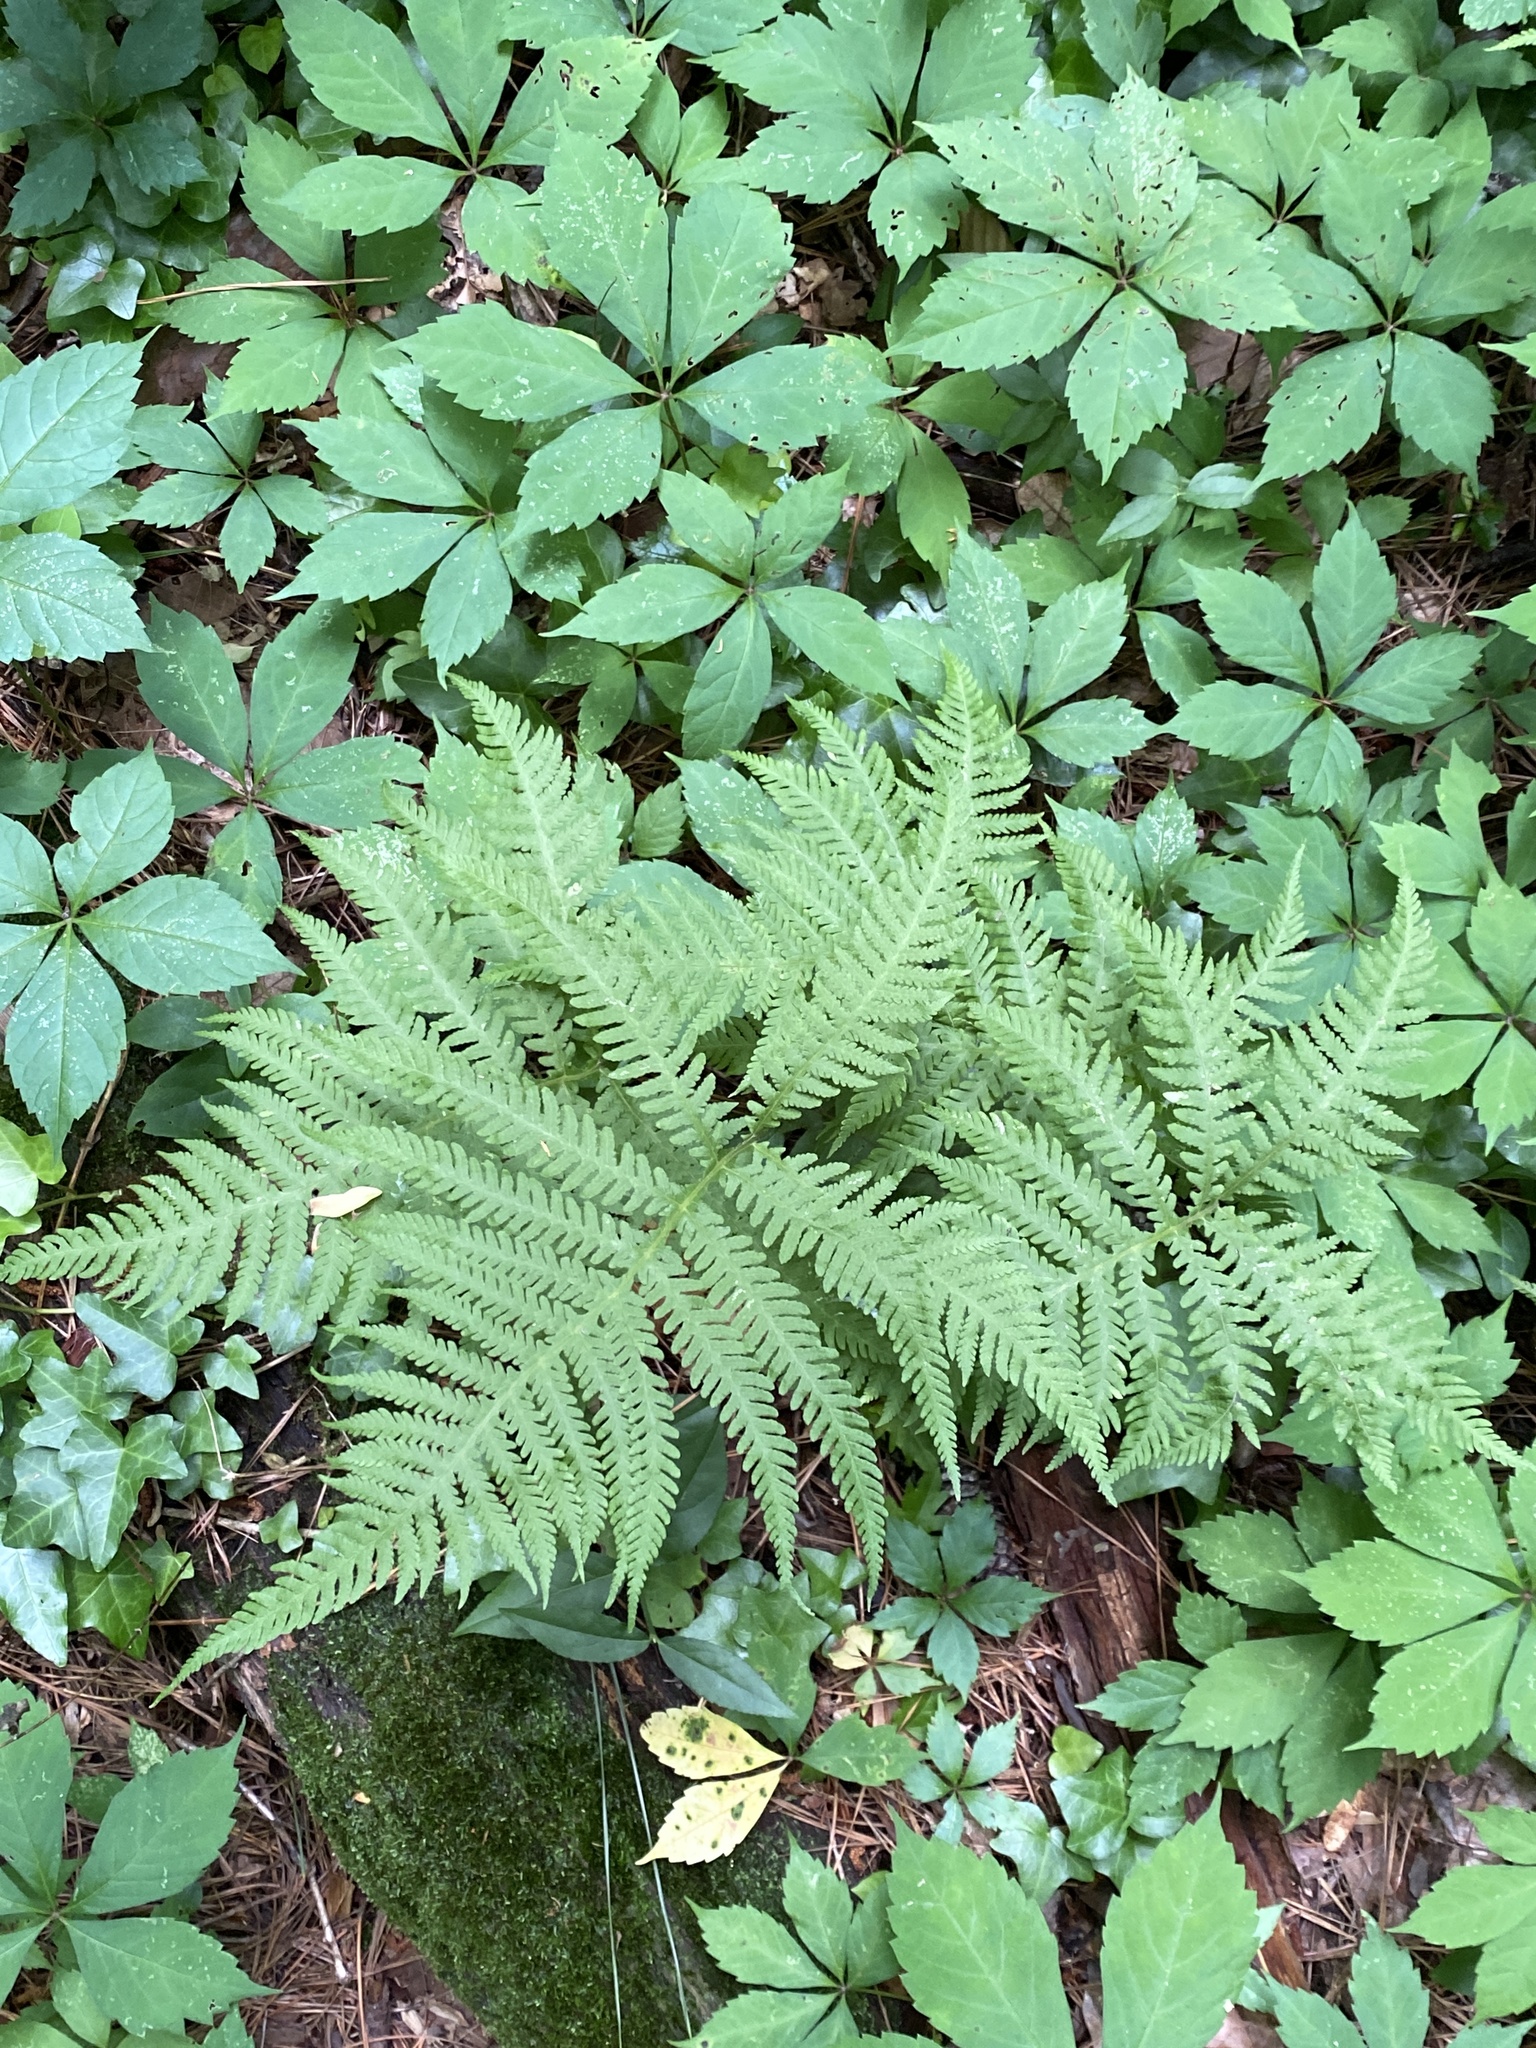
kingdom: Plantae
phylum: Tracheophyta
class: Polypodiopsida
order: Polypodiales
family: Thelypteridaceae
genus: Phegopteris
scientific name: Phegopteris hexagonoptera
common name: Broad beech fern
